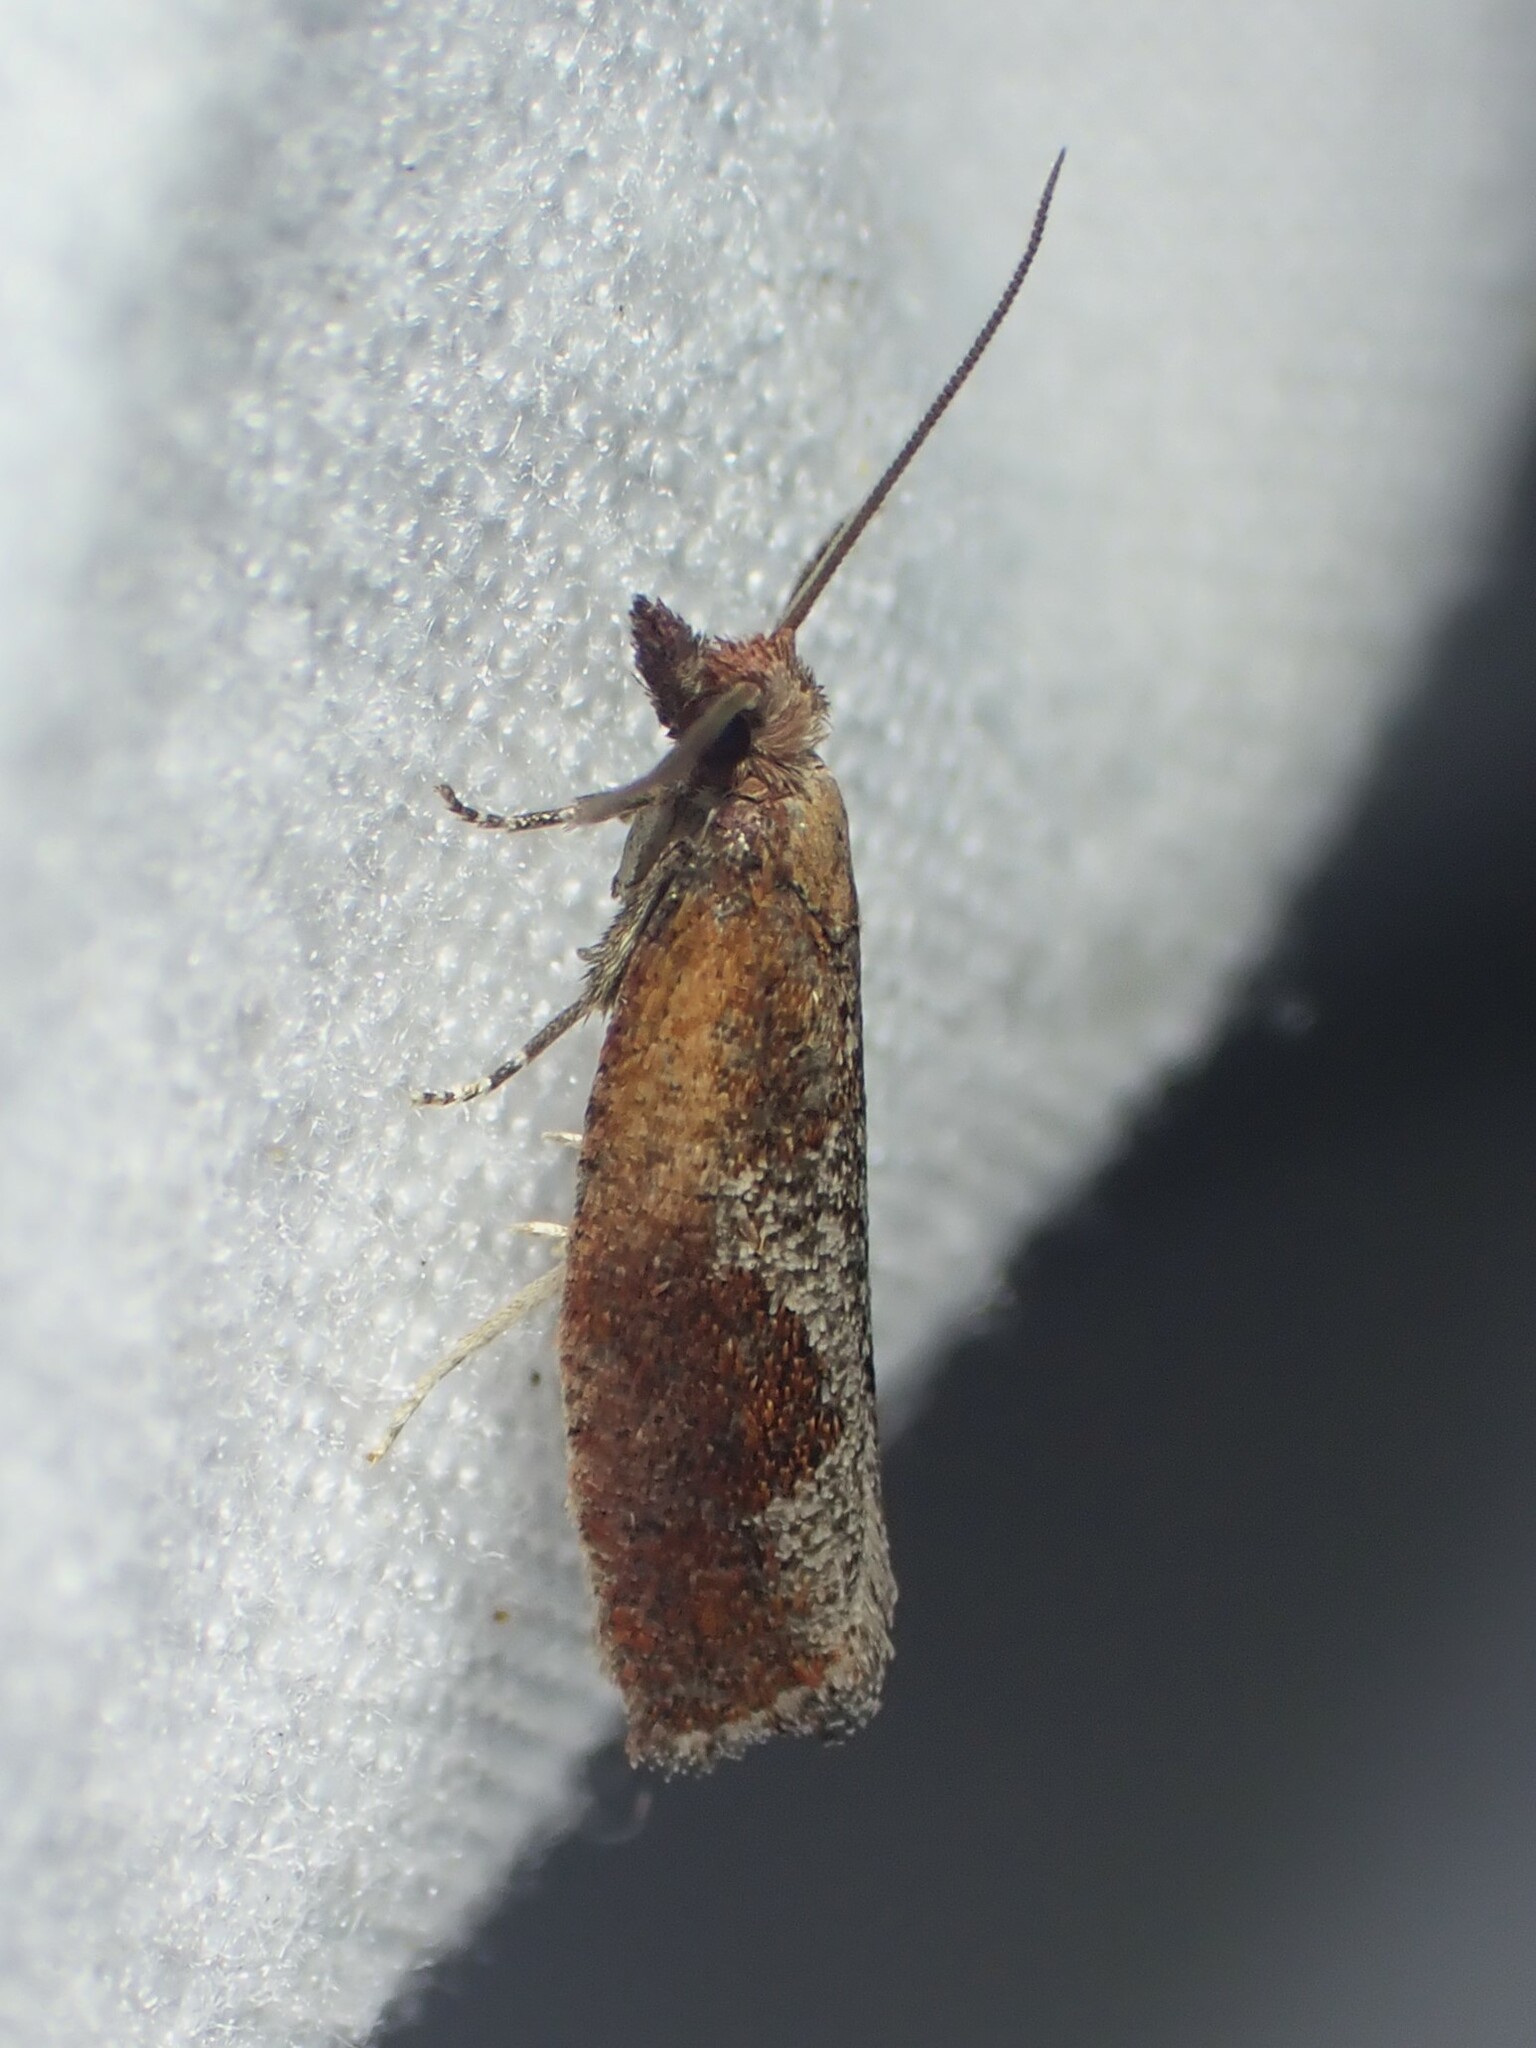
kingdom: Animalia
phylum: Arthropoda
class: Insecta
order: Lepidoptera
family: Tortricidae
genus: Epinotia
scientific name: Epinotia septemberana
